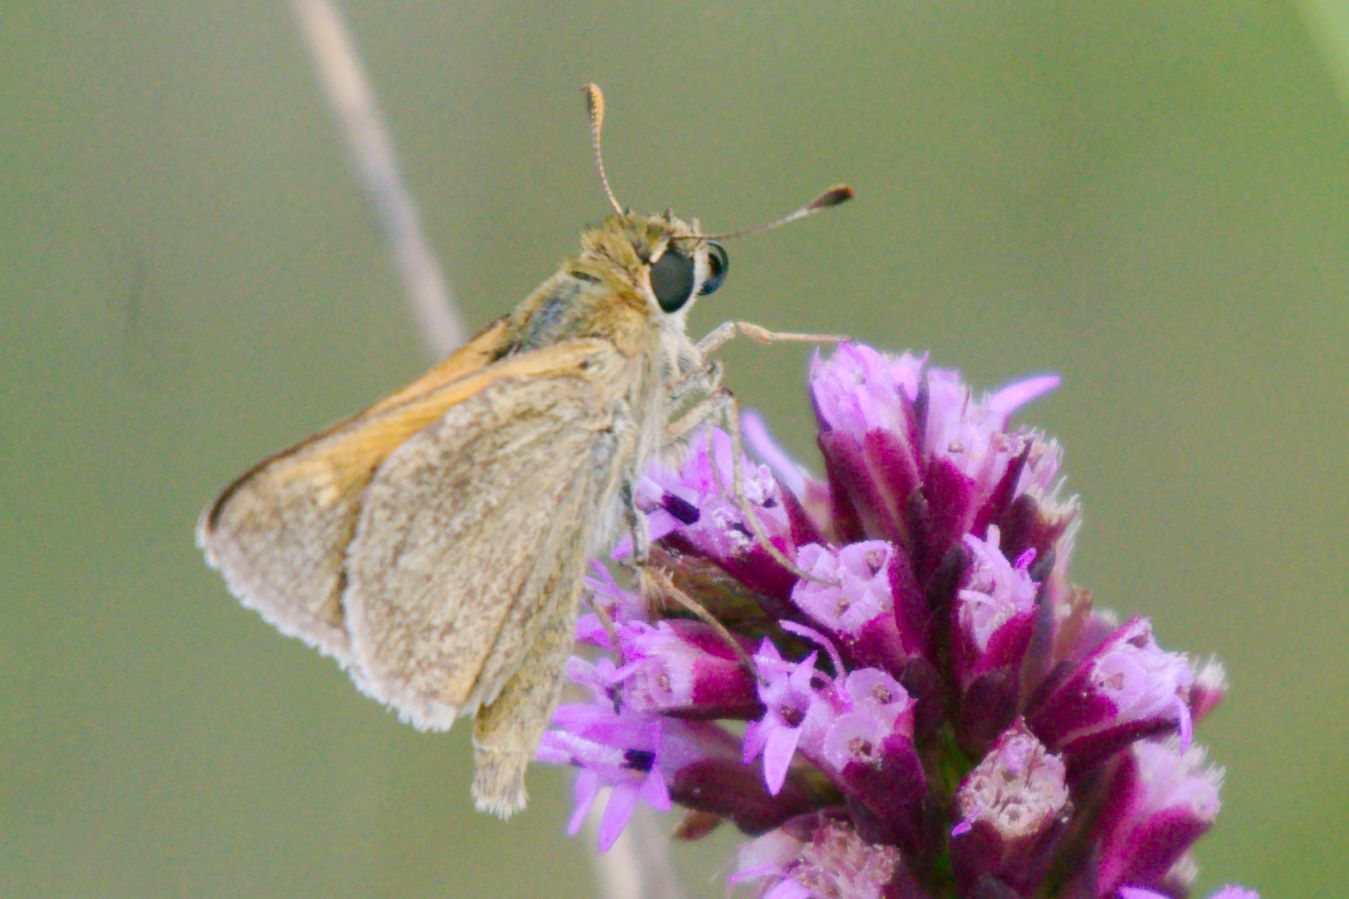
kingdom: Animalia
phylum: Arthropoda
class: Insecta
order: Lepidoptera
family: Hesperiidae
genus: Polites
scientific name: Polites themistocles
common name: Tawny-edged skipper
